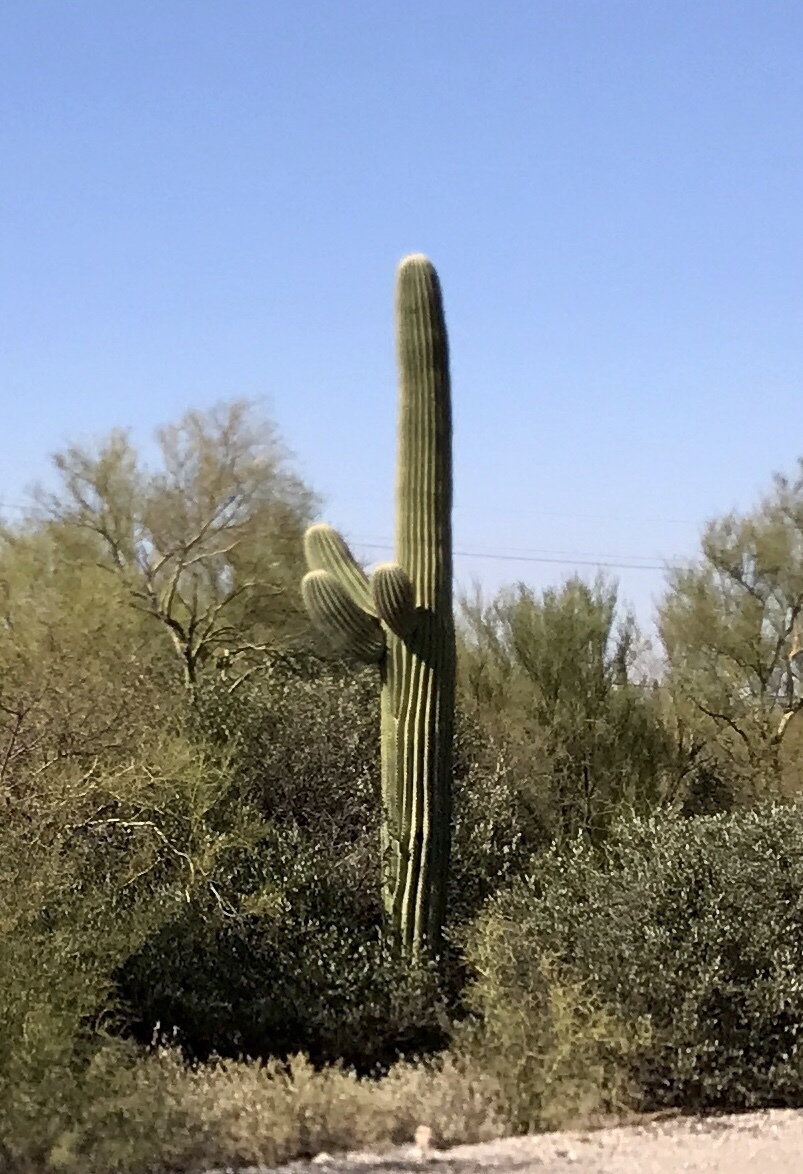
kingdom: Plantae
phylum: Tracheophyta
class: Magnoliopsida
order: Caryophyllales
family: Cactaceae
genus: Carnegiea
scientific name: Carnegiea gigantea
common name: Saguaro
